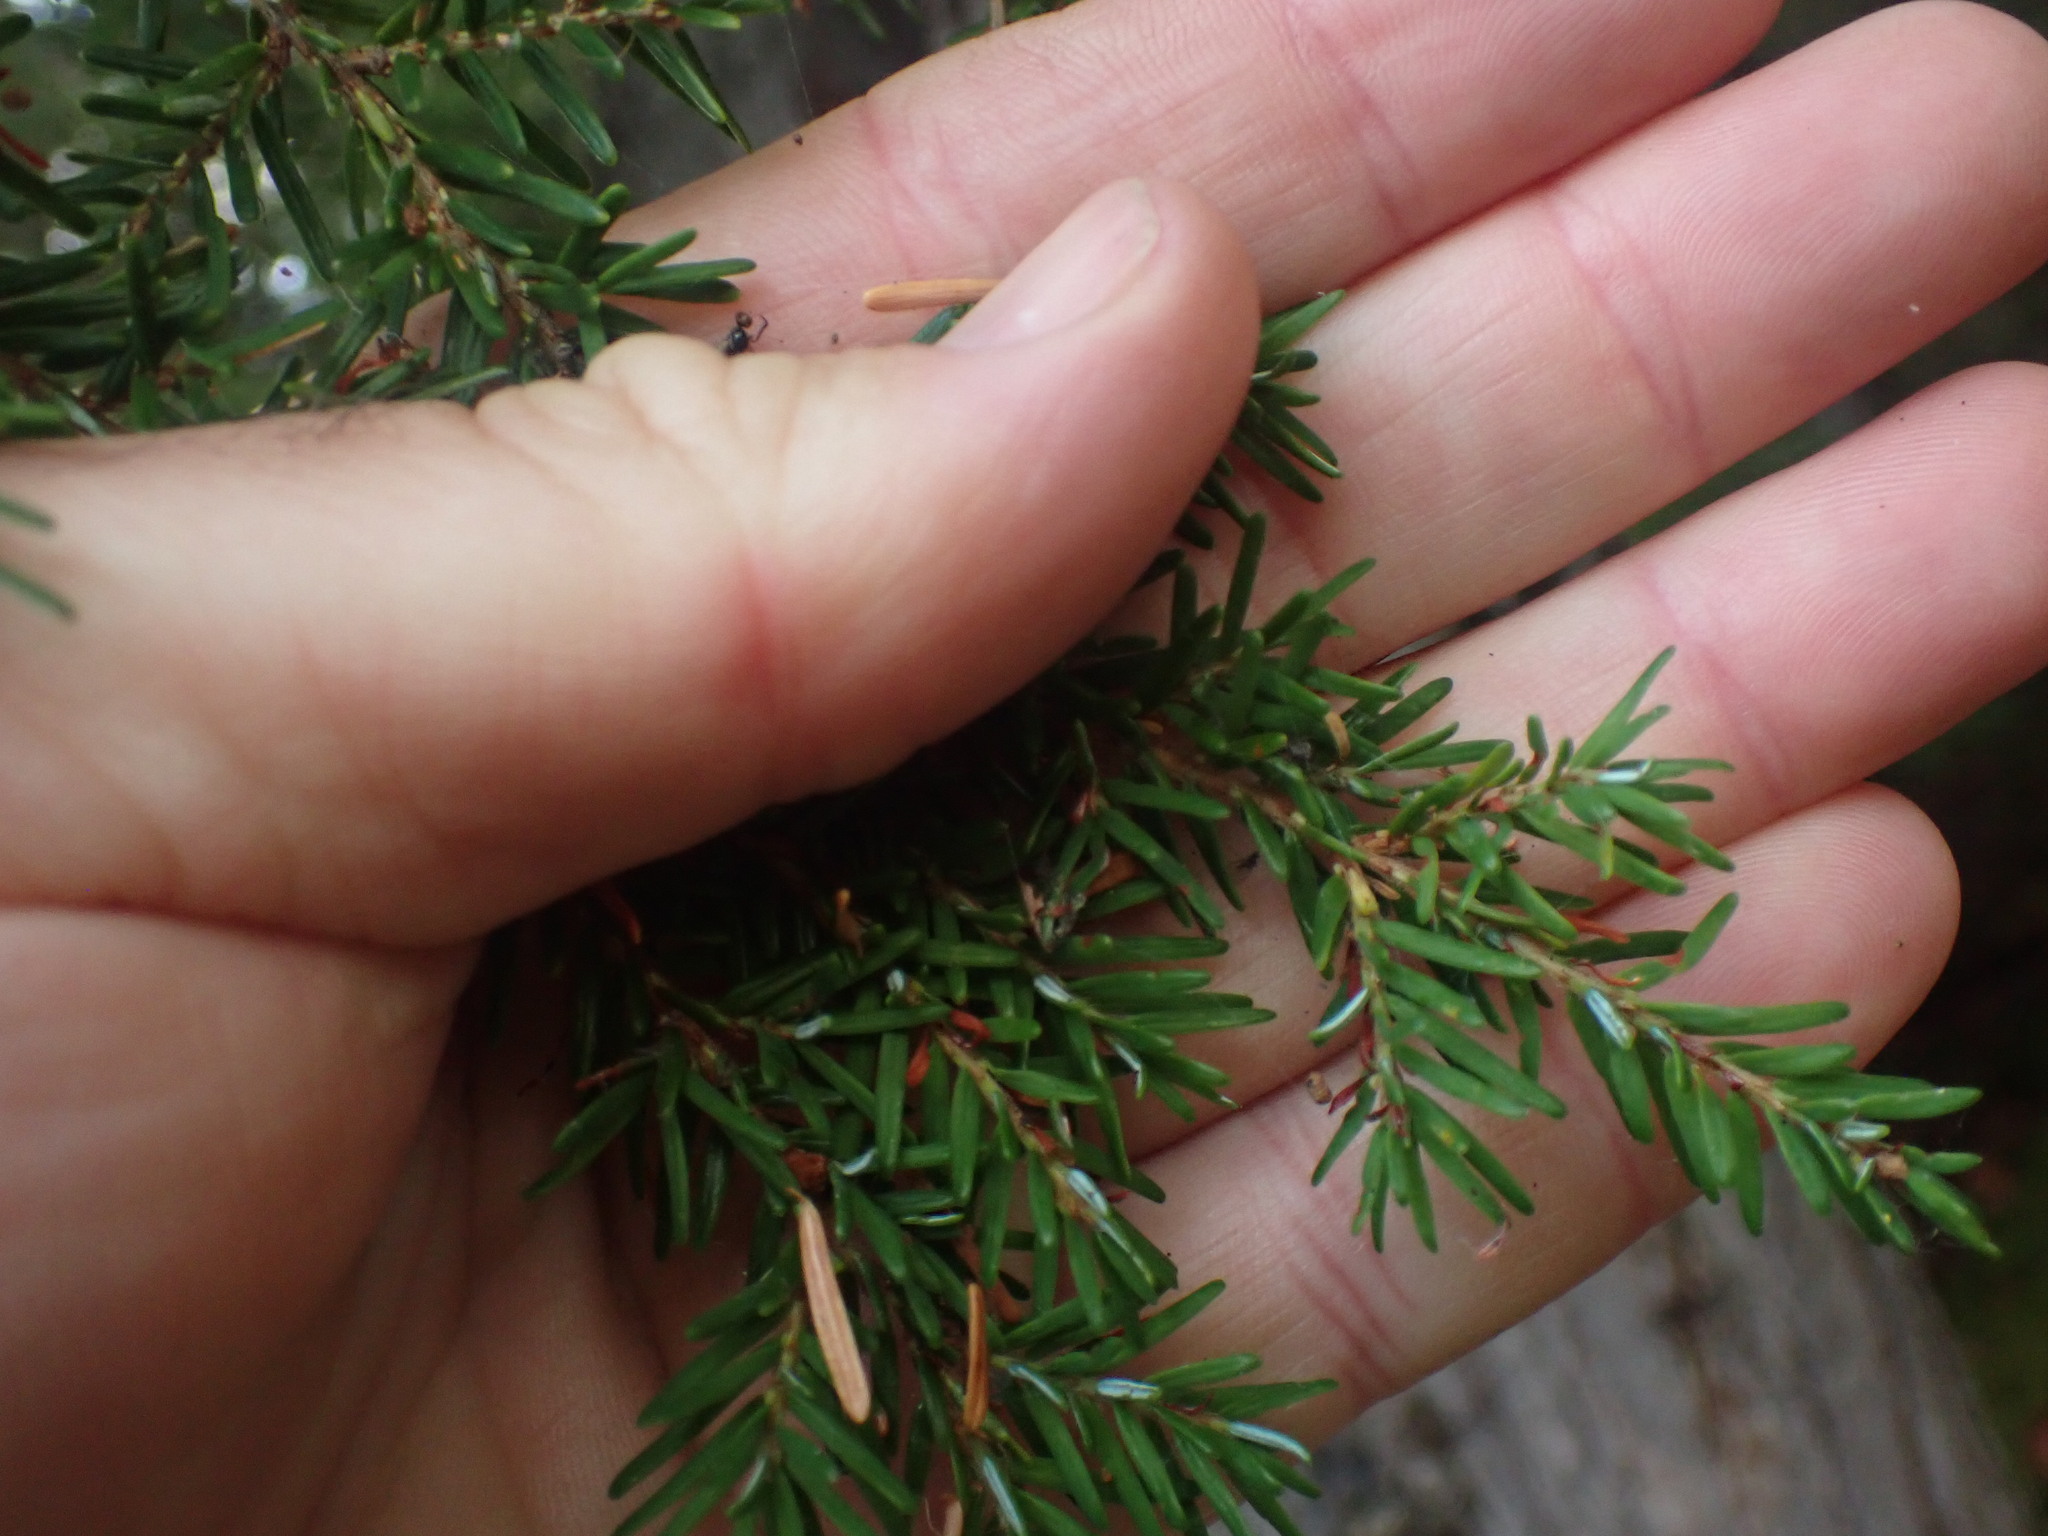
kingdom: Plantae
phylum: Tracheophyta
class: Pinopsida
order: Pinales
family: Pinaceae
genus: Tsuga
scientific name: Tsuga heterophylla
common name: Western hemlock
